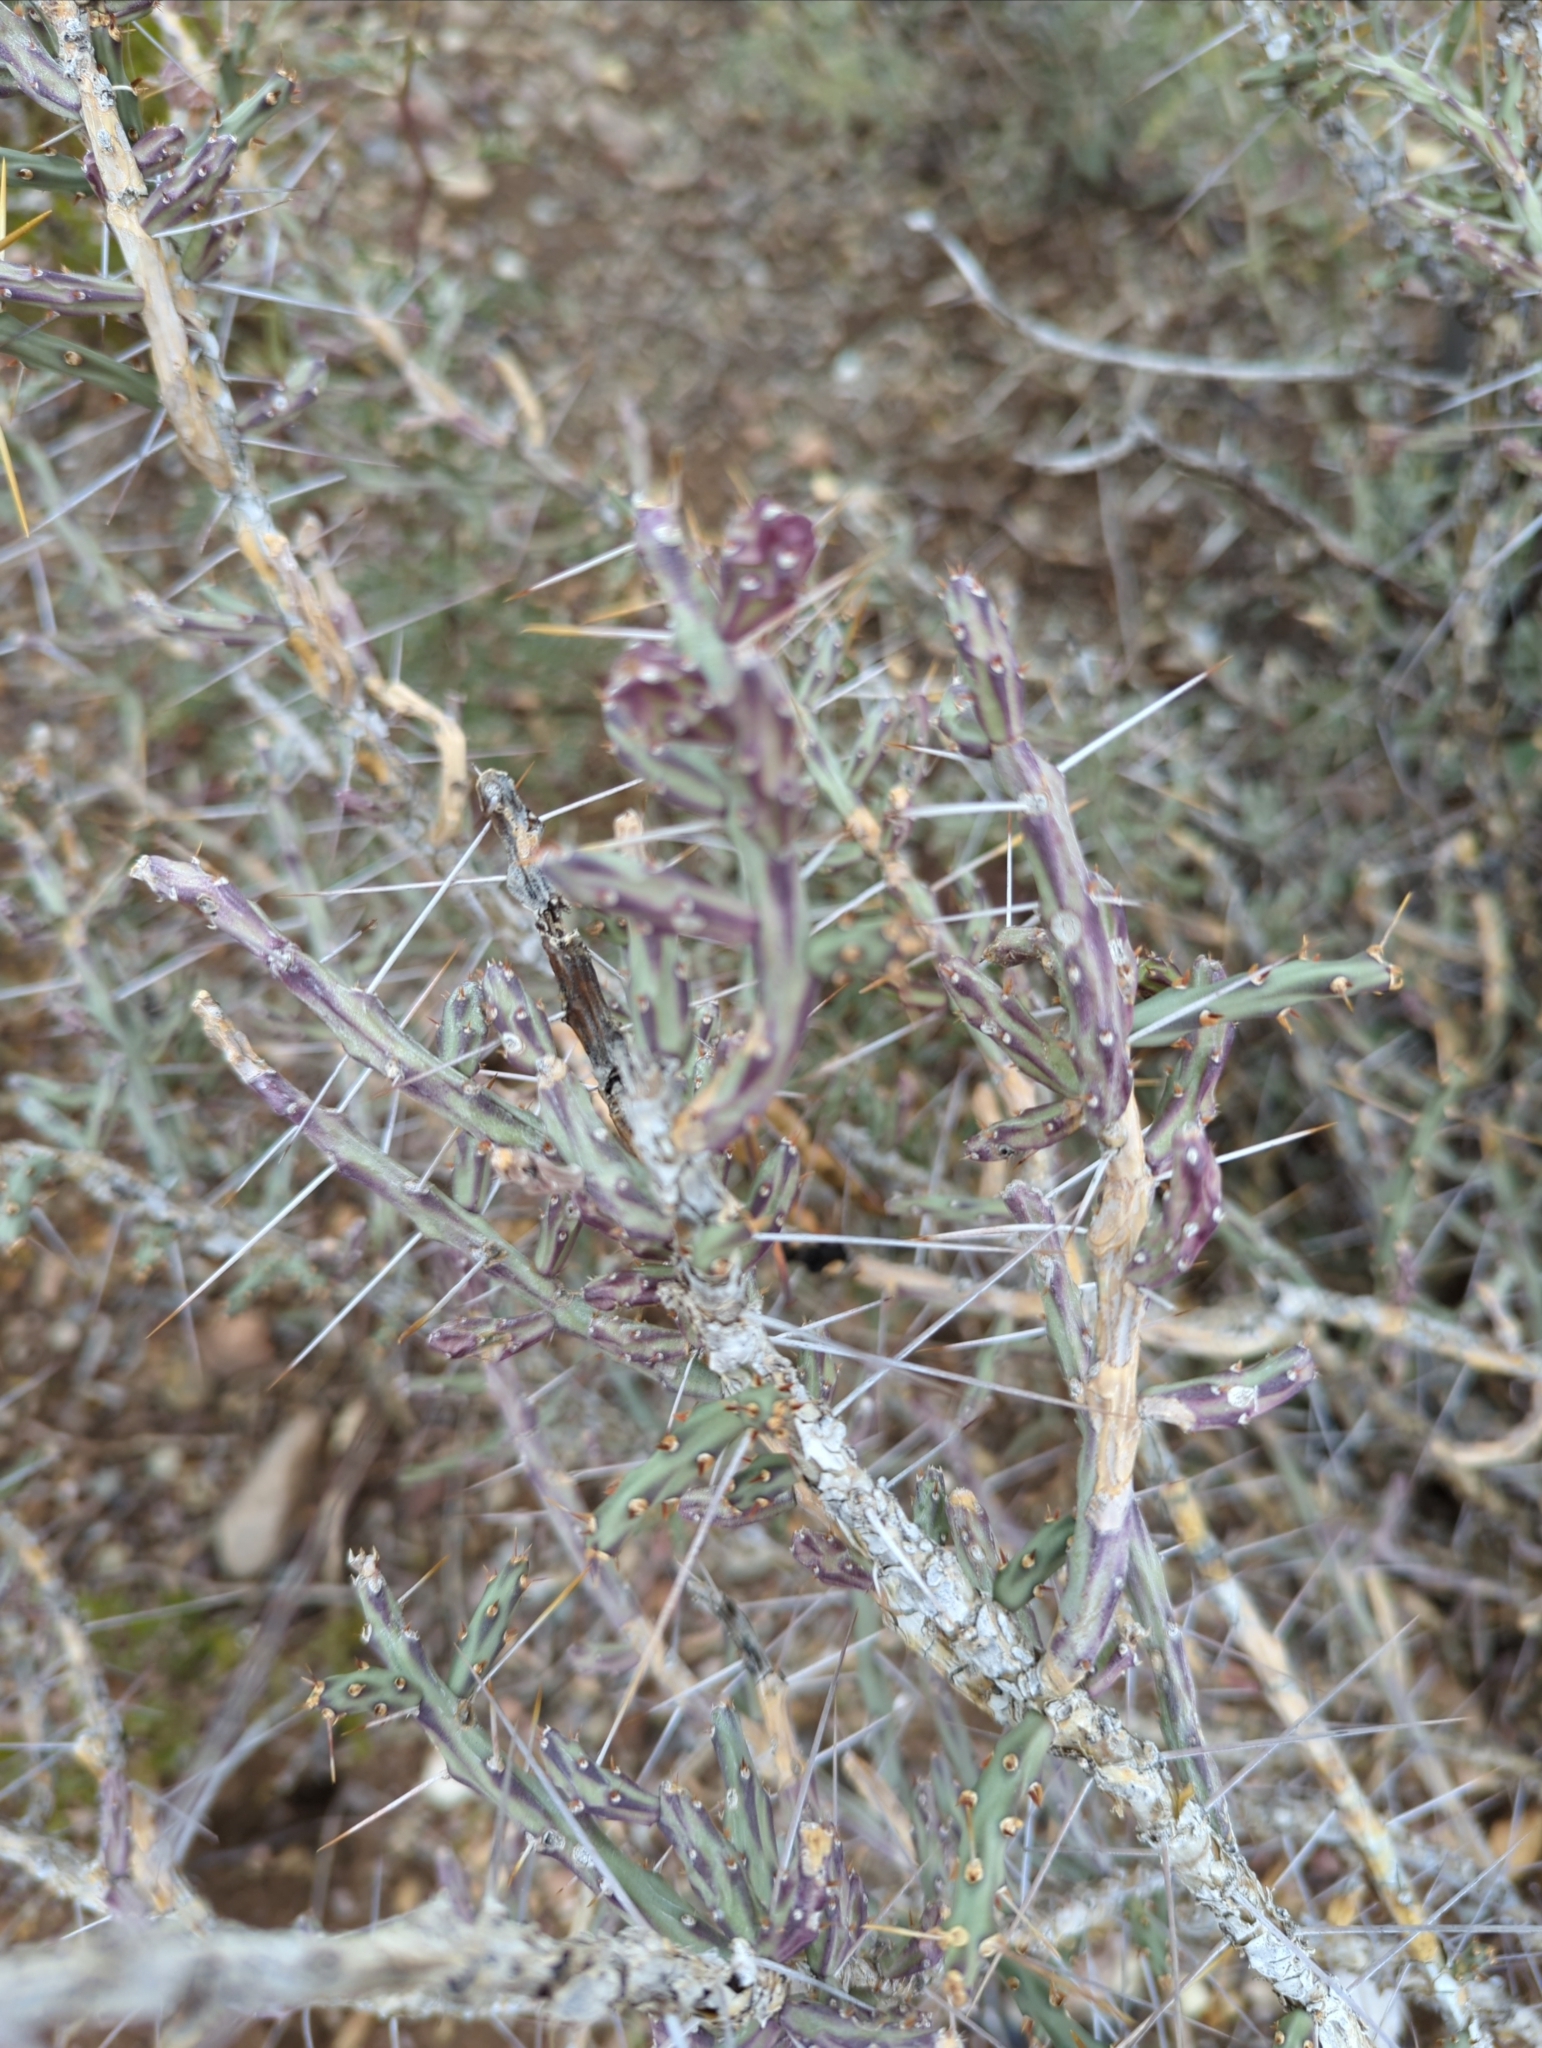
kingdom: Plantae
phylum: Tracheophyta
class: Magnoliopsida
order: Caryophyllales
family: Cactaceae
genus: Cylindropuntia
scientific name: Cylindropuntia leptocaulis
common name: Christmas cactus
